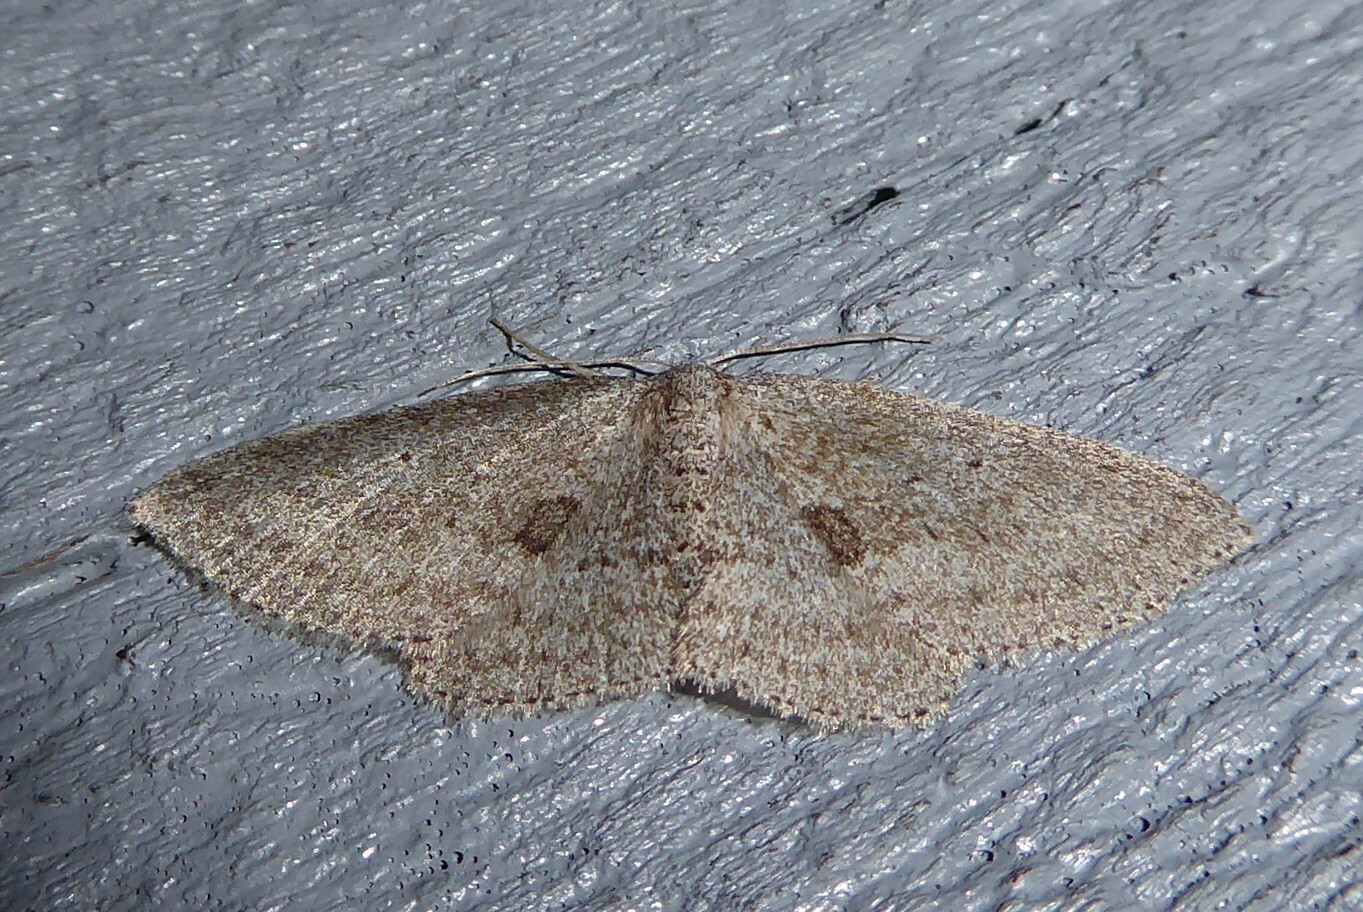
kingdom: Animalia
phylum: Arthropoda
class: Insecta
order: Lepidoptera
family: Geometridae
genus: Poecilasthena
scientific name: Poecilasthena schistaria
